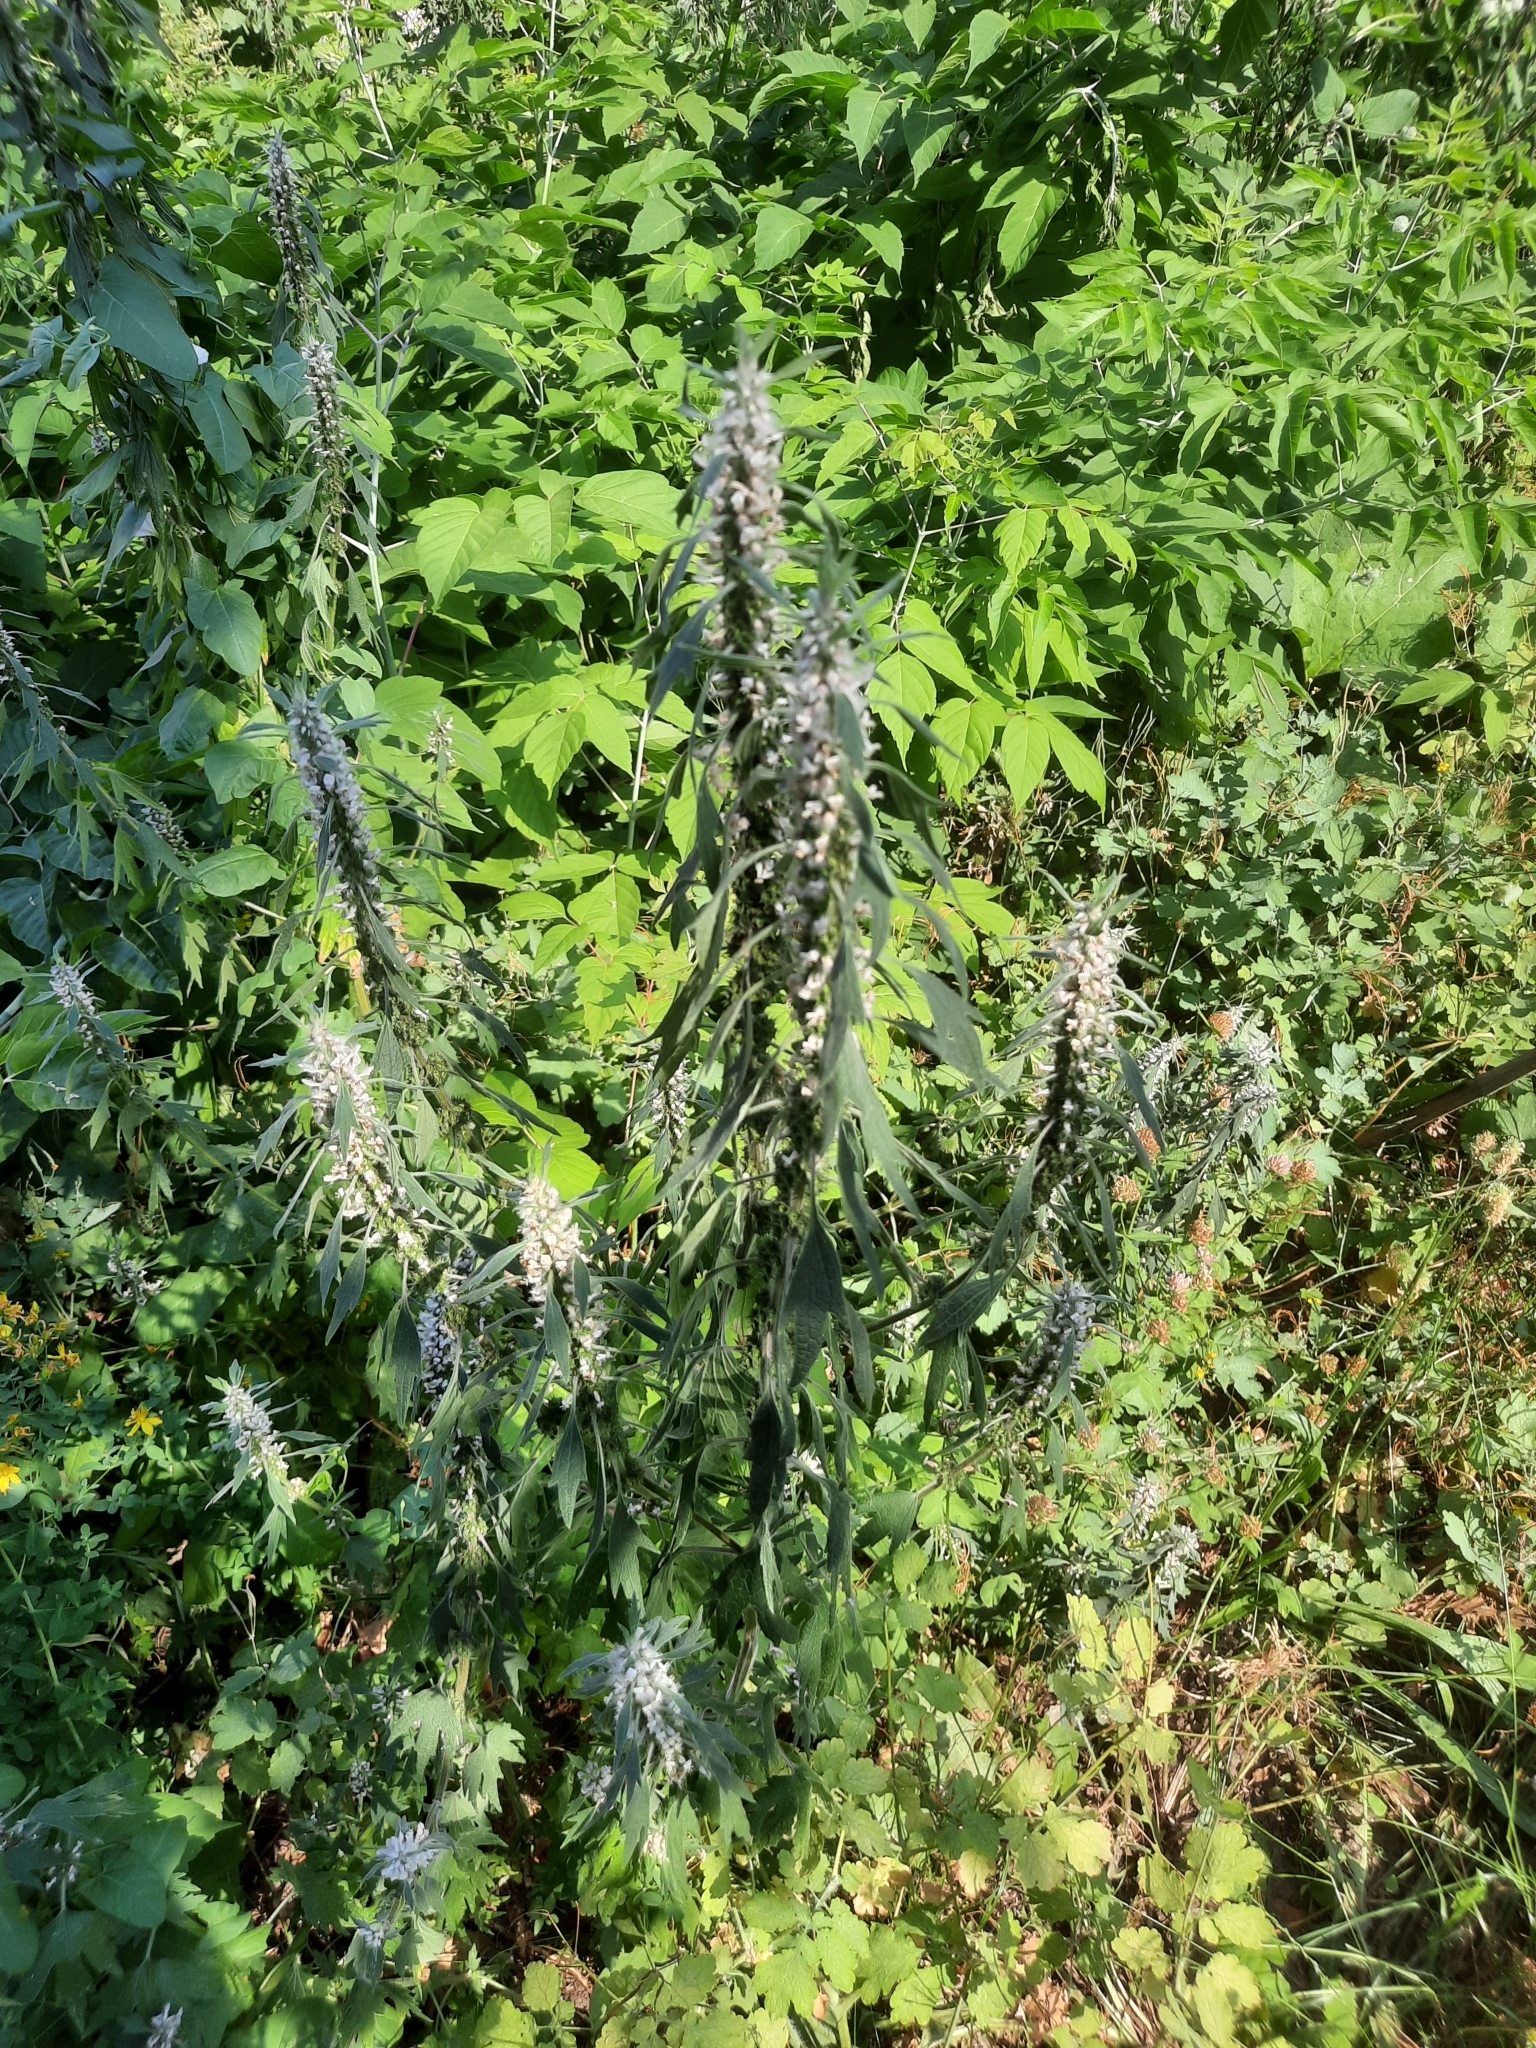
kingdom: Plantae
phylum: Tracheophyta
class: Magnoliopsida
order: Lamiales
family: Lamiaceae
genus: Leonurus
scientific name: Leonurus quinquelobatus
